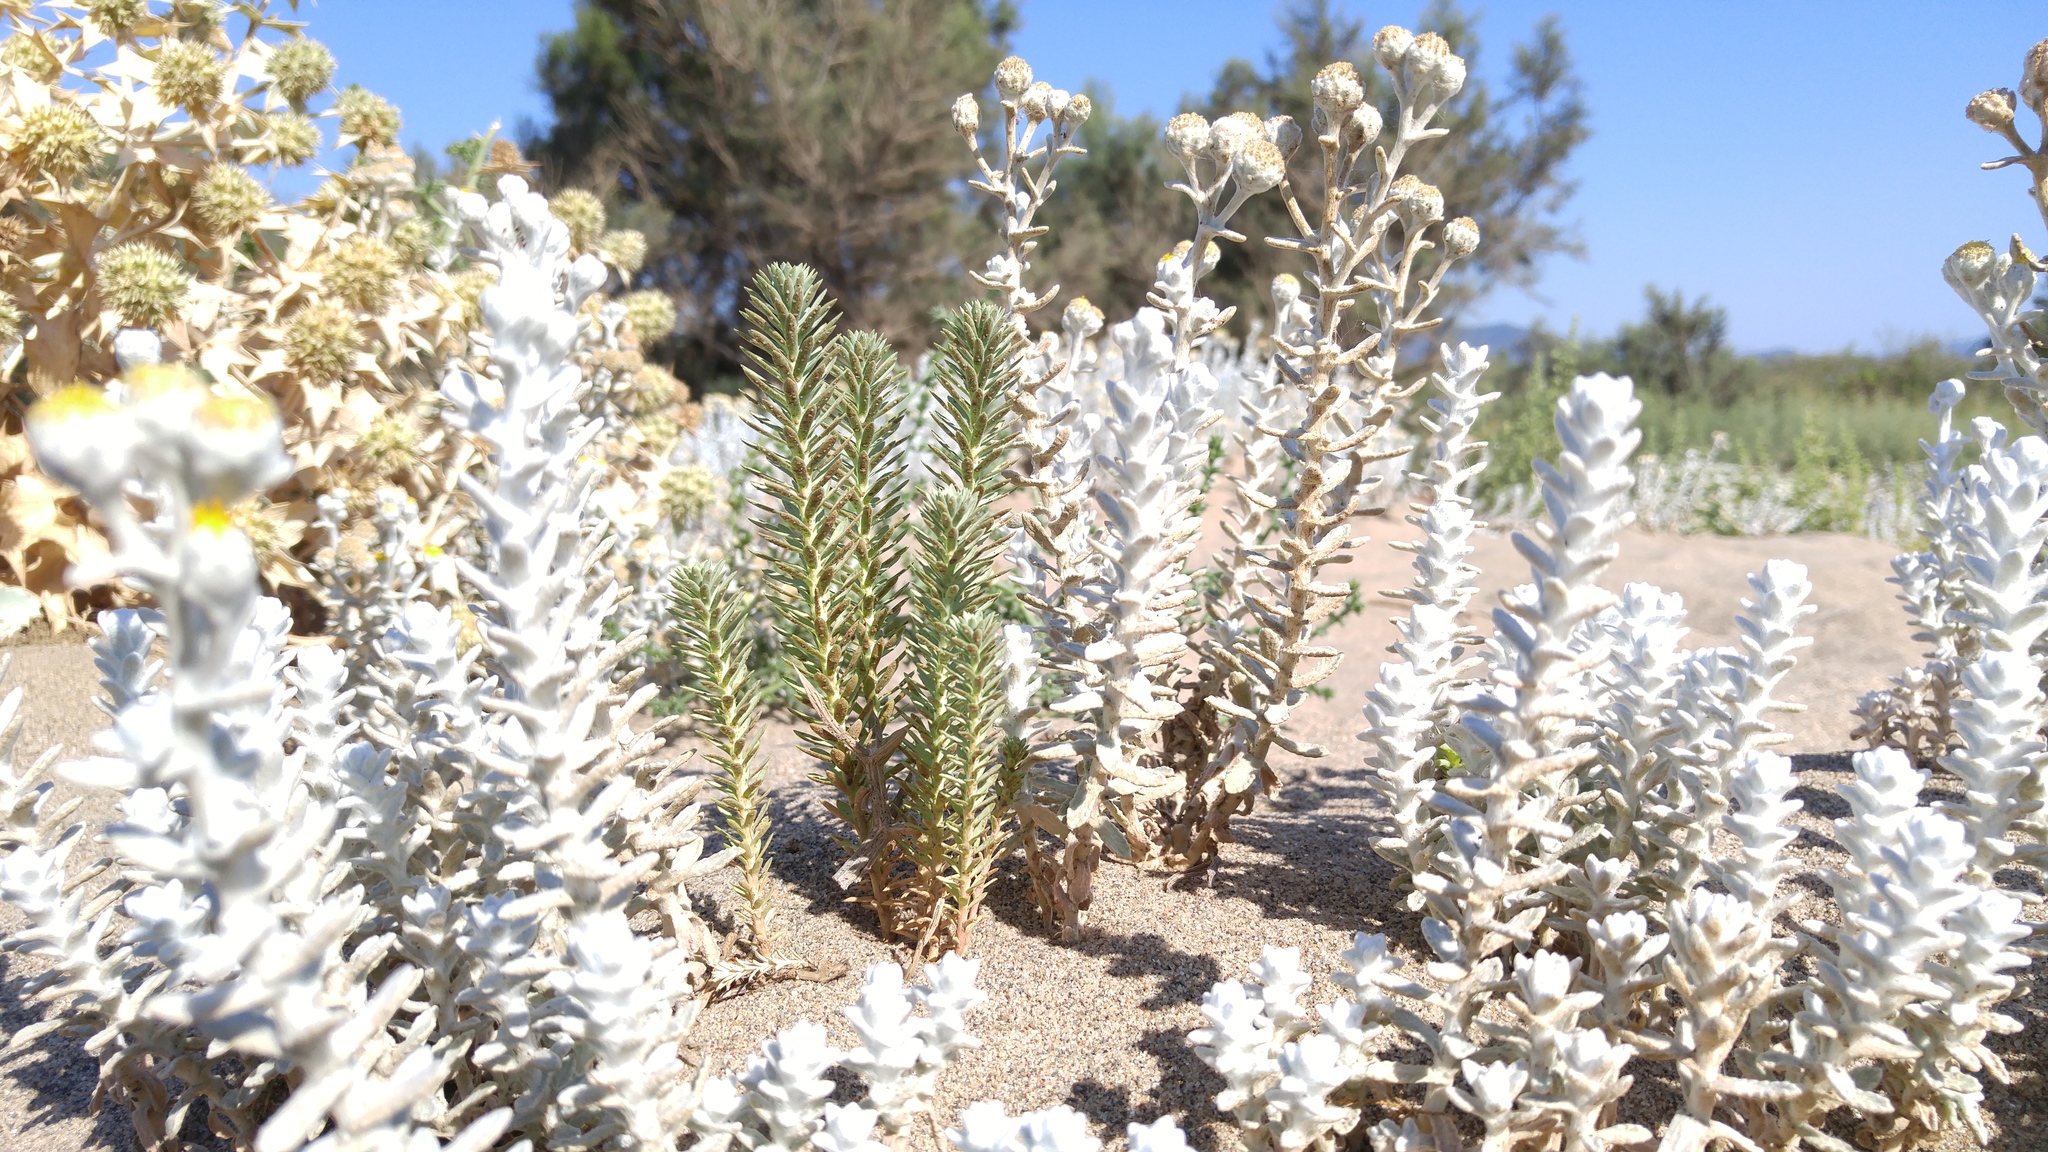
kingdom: Plantae
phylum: Tracheophyta
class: Magnoliopsida
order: Asterales
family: Asteraceae
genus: Achillea
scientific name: Achillea maritima
